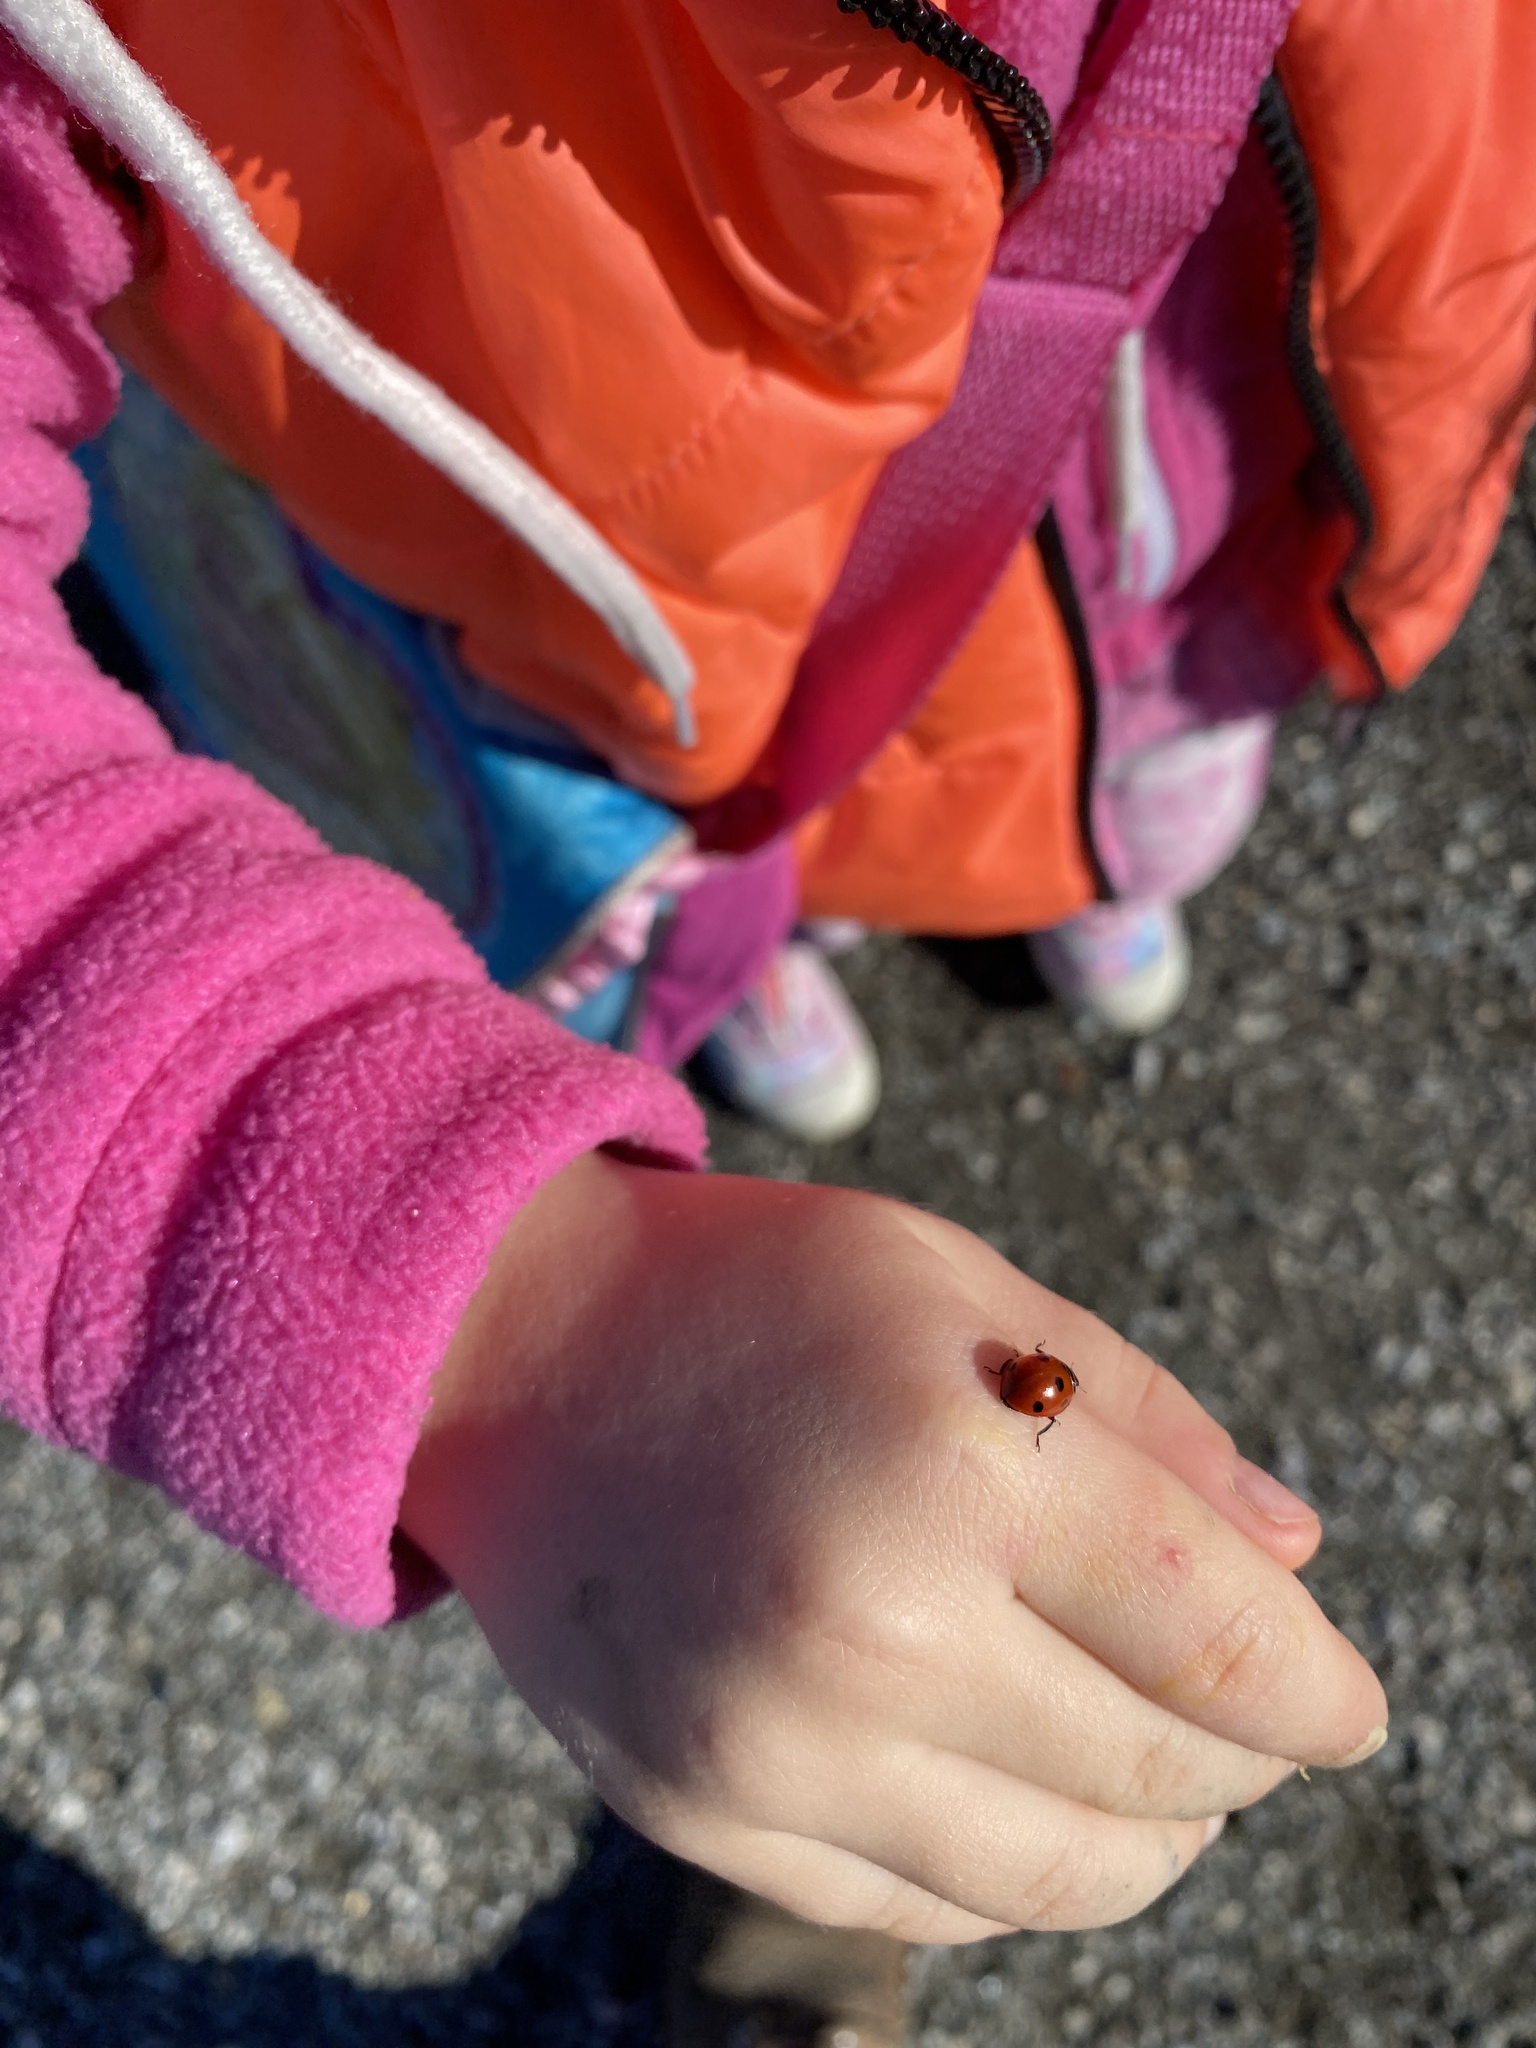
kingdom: Animalia
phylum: Arthropoda
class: Insecta
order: Coleoptera
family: Coccinellidae
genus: Coccinella
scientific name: Coccinella septempunctata
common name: Sevenspotted lady beetle
